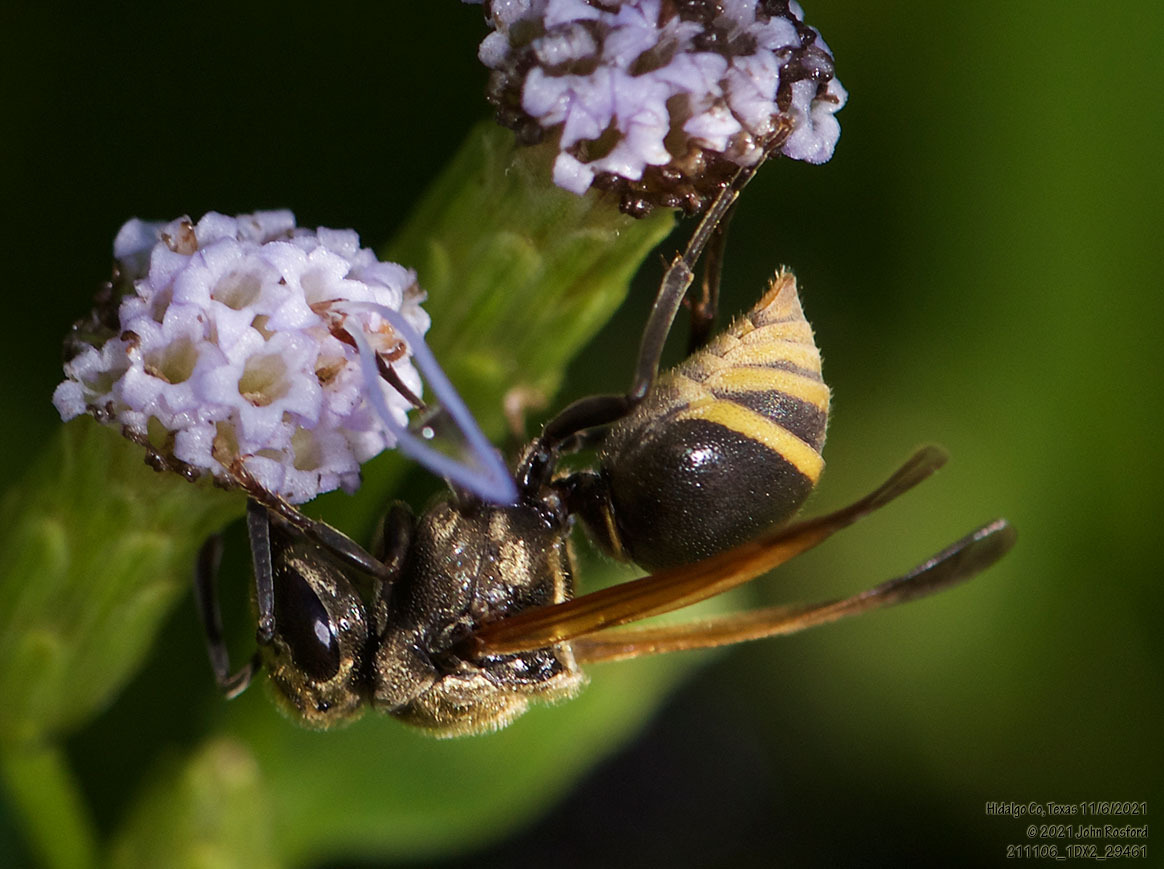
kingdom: Animalia
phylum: Arthropoda
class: Insecta
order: Hymenoptera
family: Vespidae
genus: Brachygastra
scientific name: Brachygastra mellifica
